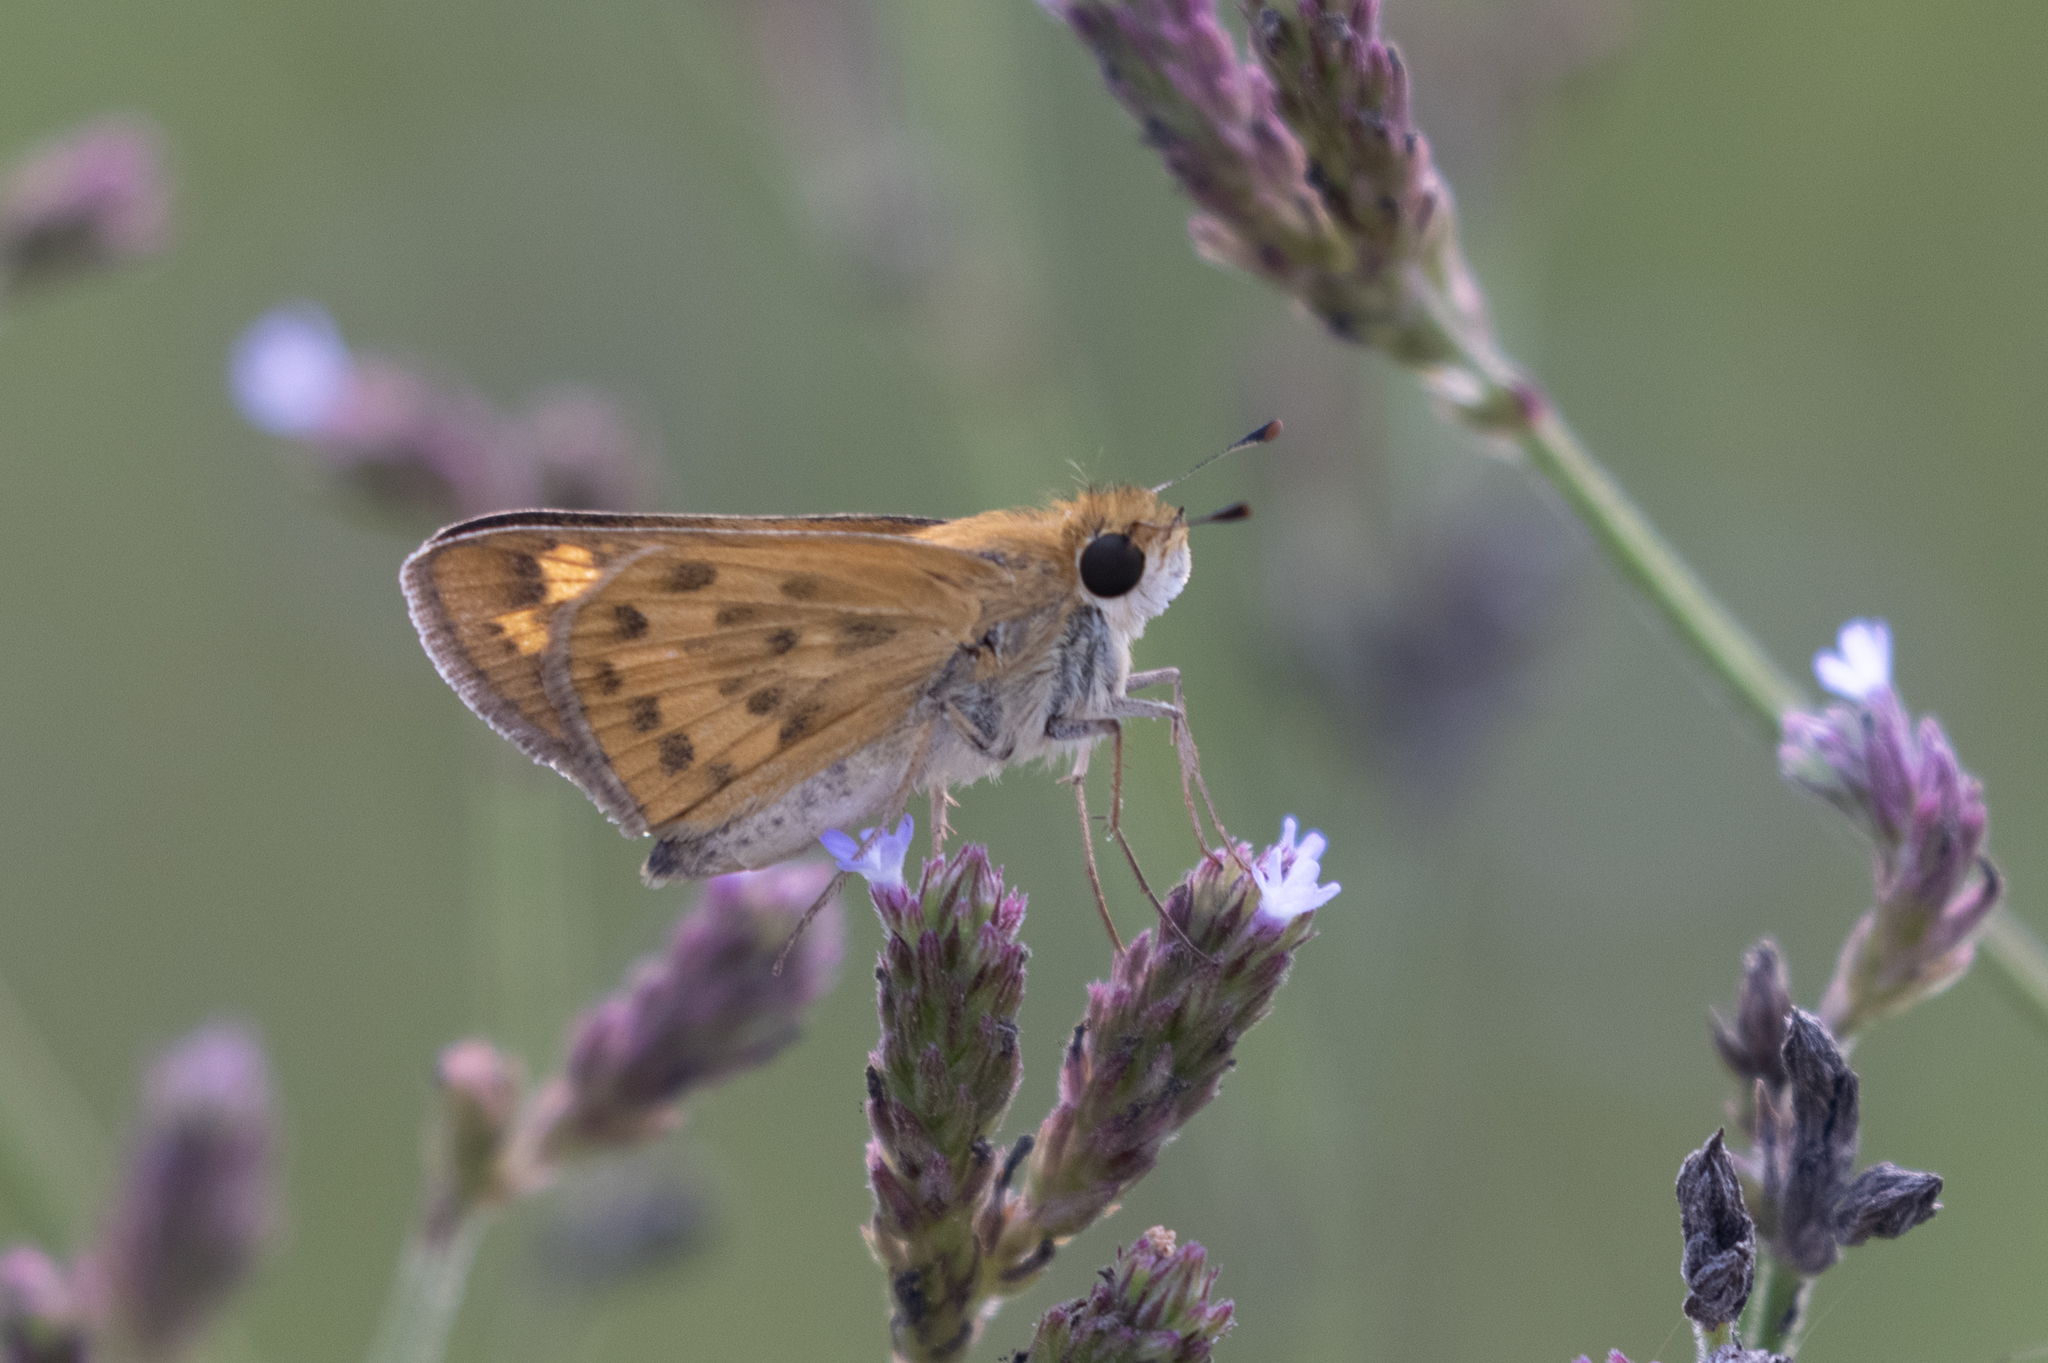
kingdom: Animalia
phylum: Arthropoda
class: Insecta
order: Lepidoptera
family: Hesperiidae
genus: Hylephila
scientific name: Hylephila phyleus
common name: Fiery skipper
